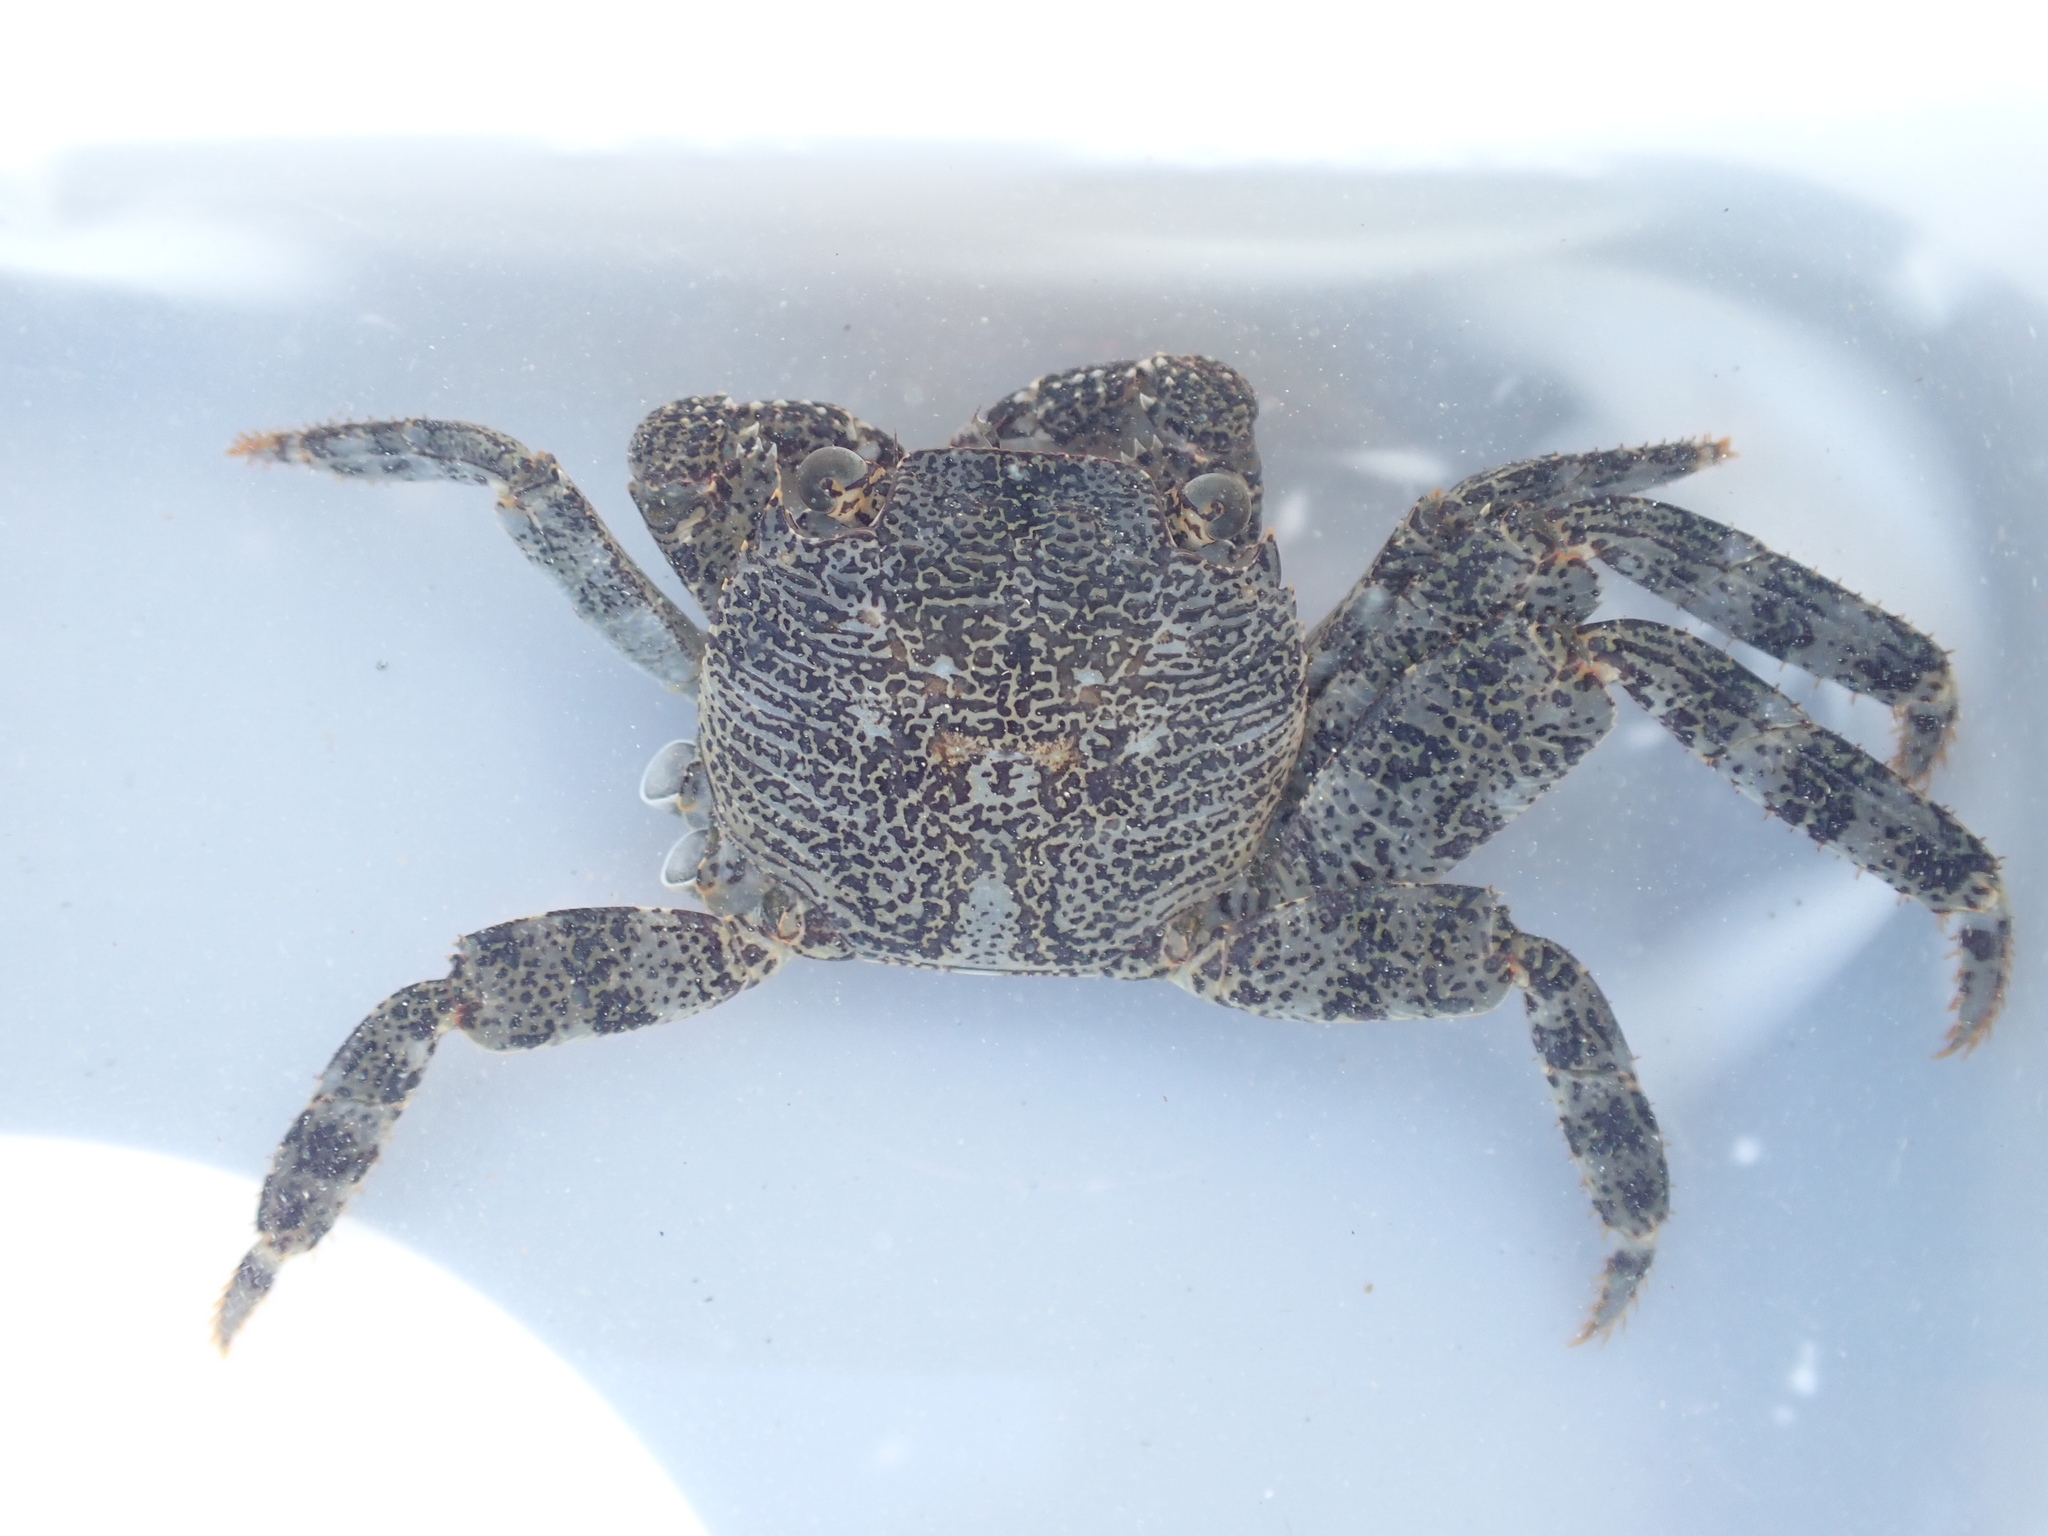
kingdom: Animalia
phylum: Arthropoda
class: Malacostraca
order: Decapoda
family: Grapsidae
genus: Leptograpsus
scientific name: Leptograpsus variegatus
